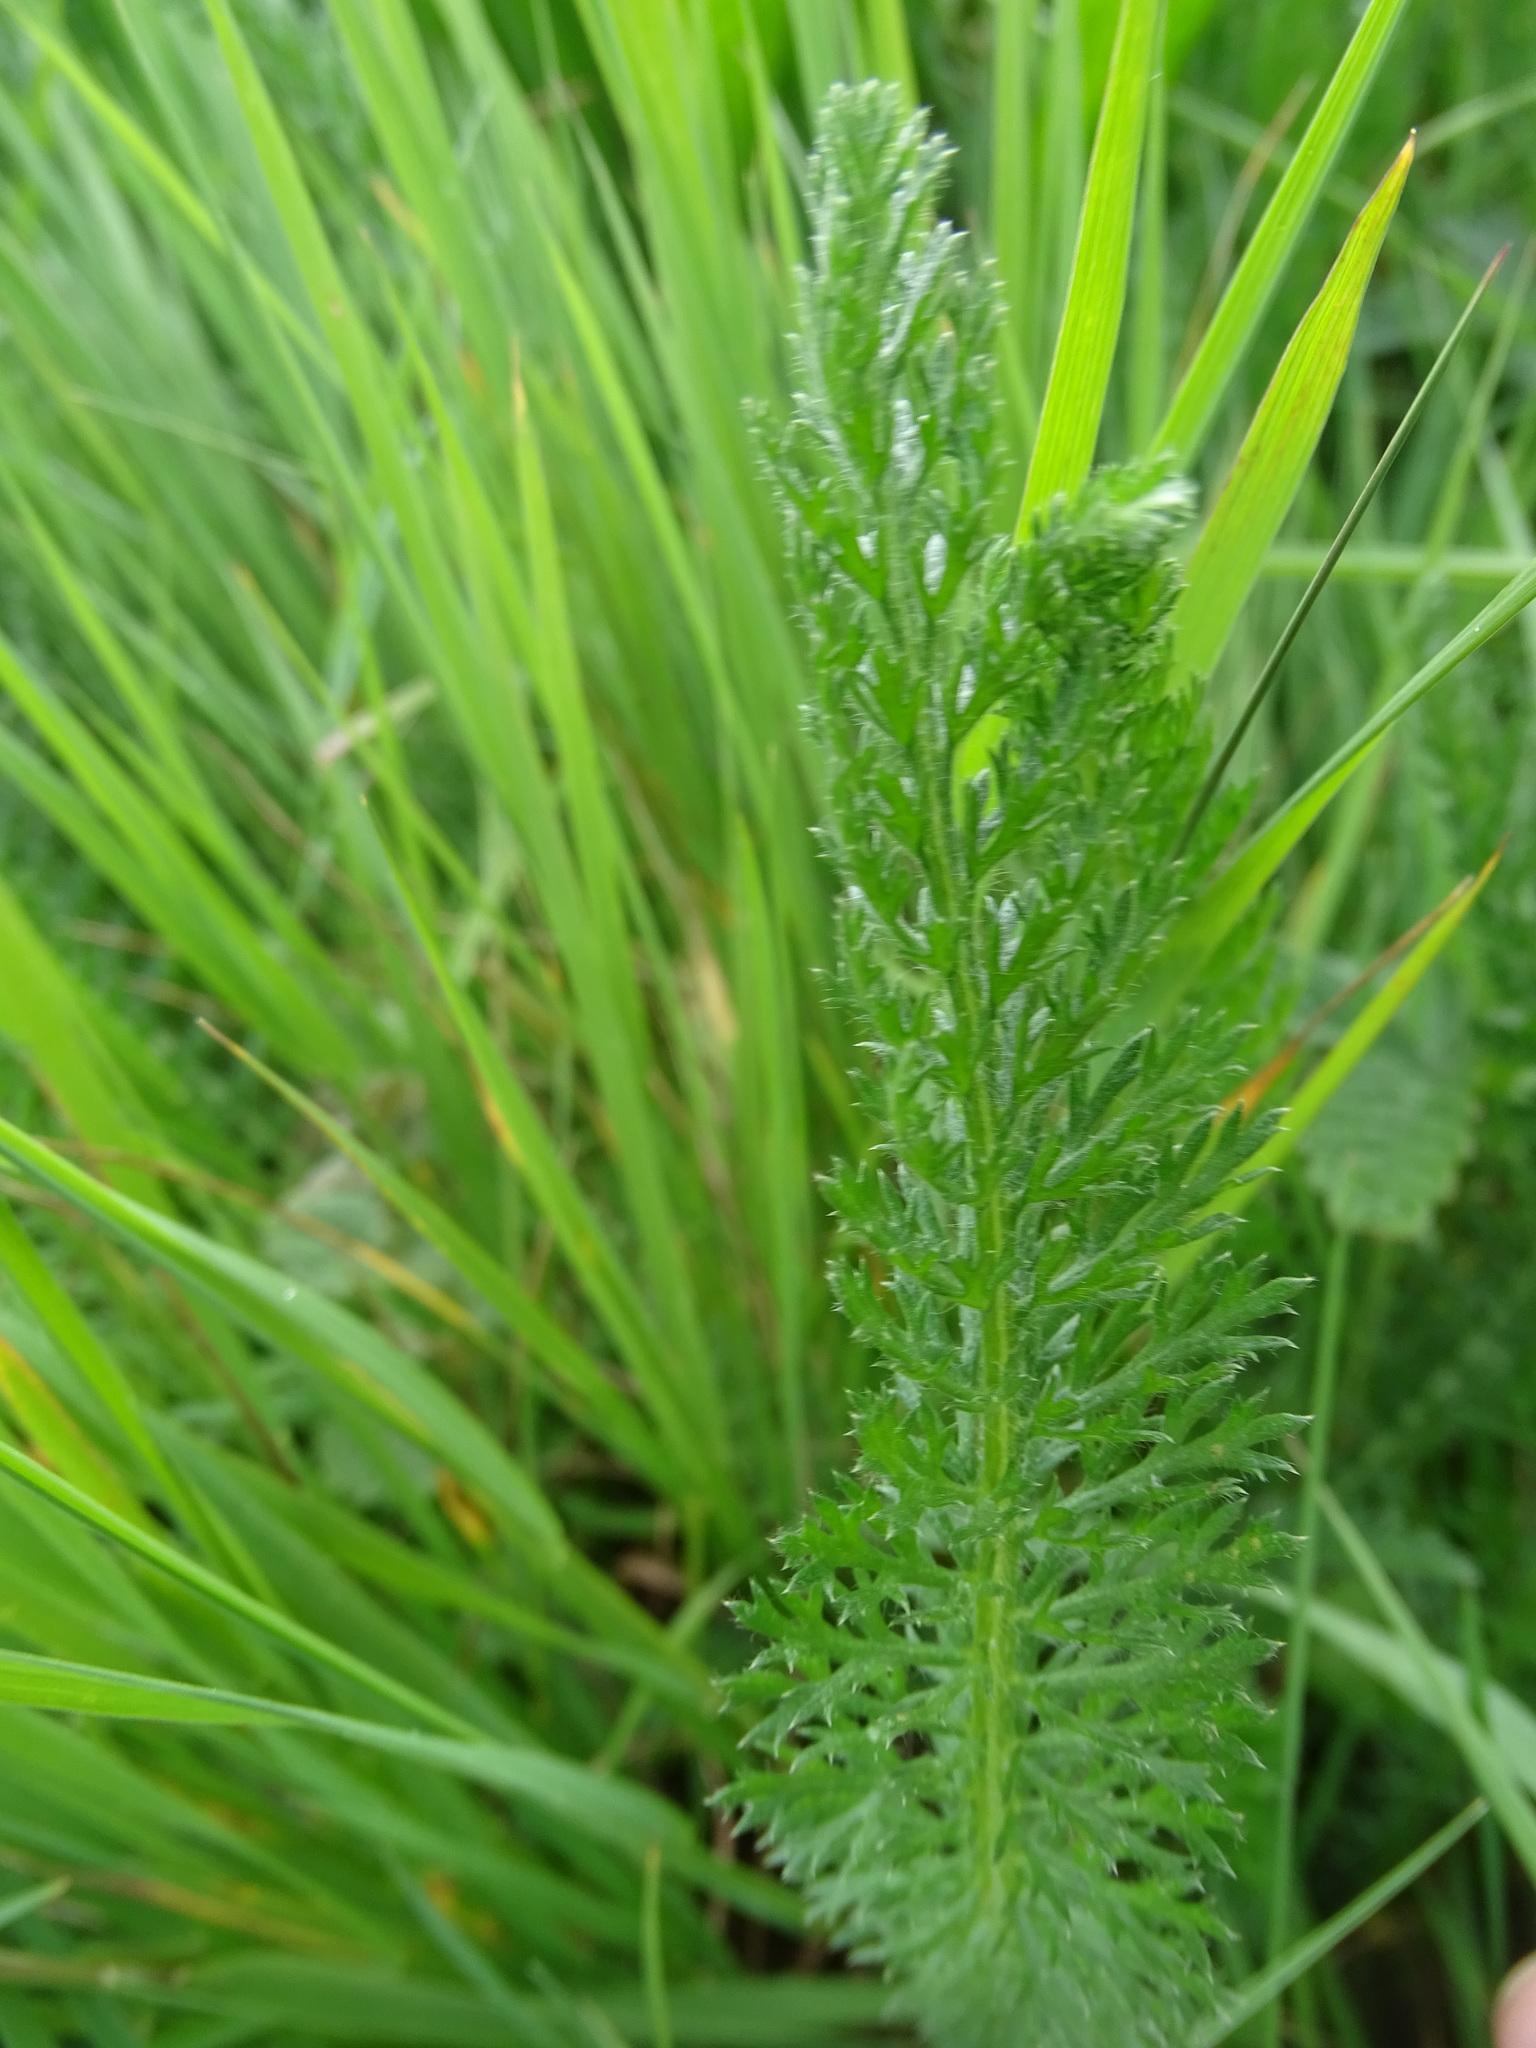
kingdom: Plantae
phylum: Tracheophyta
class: Magnoliopsida
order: Asterales
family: Asteraceae
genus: Achillea
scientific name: Achillea millefolium
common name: Yarrow
